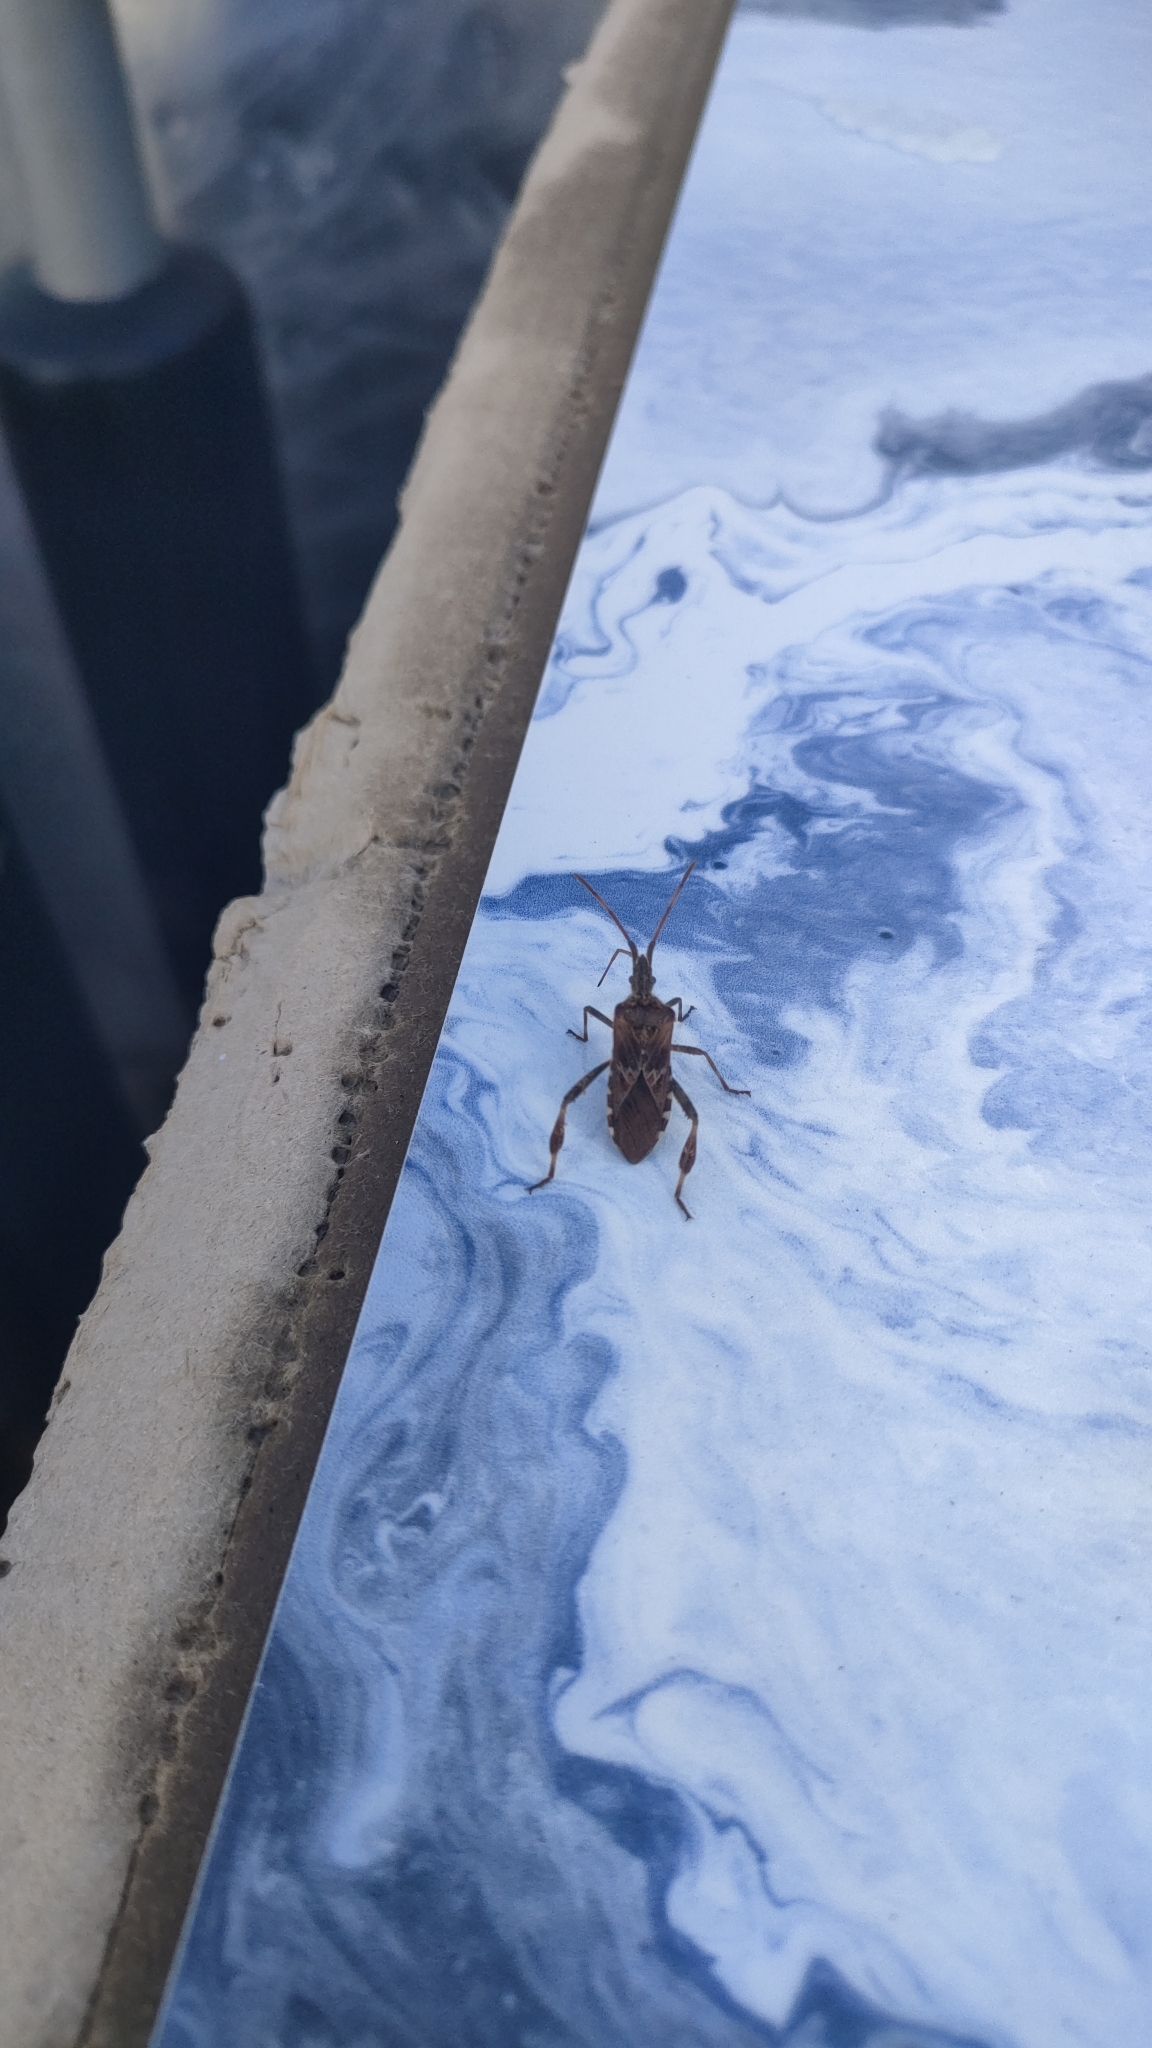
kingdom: Animalia
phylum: Arthropoda
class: Insecta
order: Hemiptera
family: Coreidae
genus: Leptoglossus
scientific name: Leptoglossus occidentalis
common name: Western conifer-seed bug
